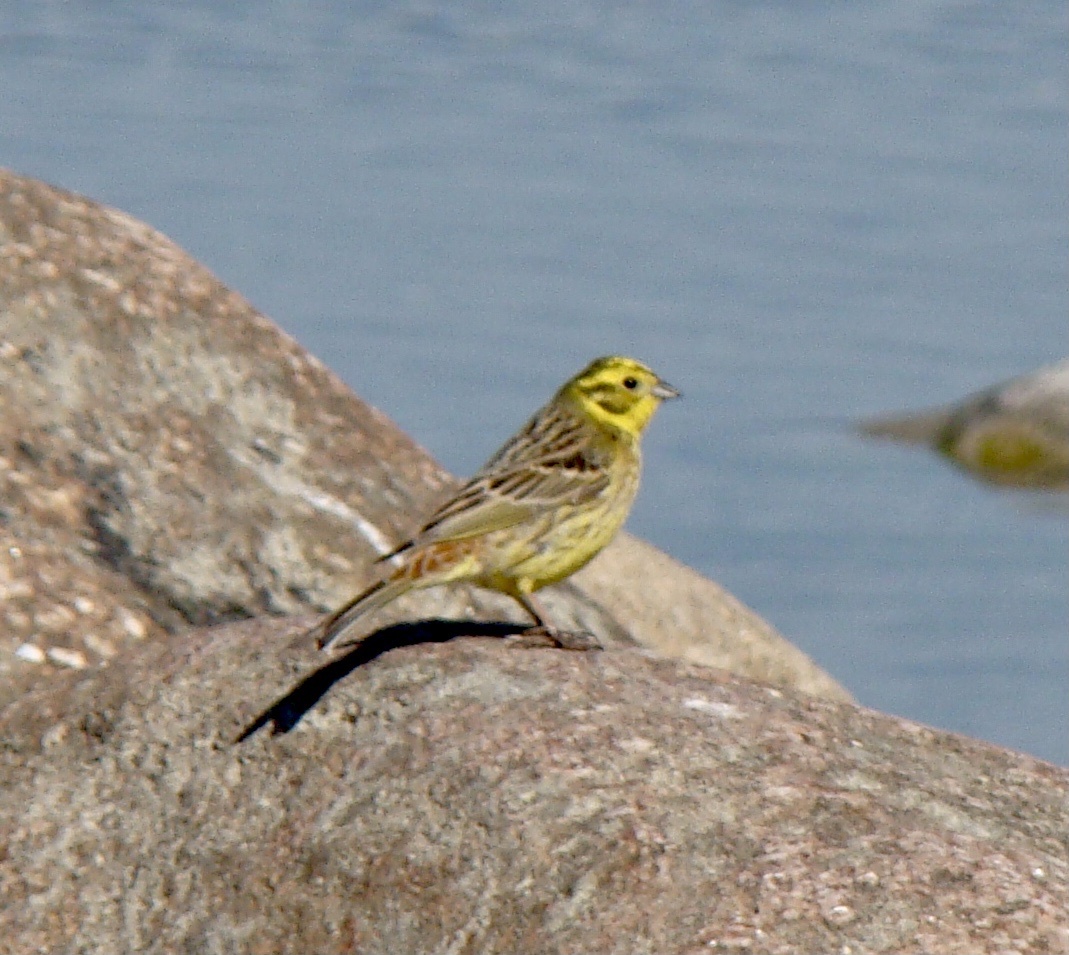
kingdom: Animalia
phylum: Chordata
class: Aves
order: Passeriformes
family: Emberizidae
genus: Emberiza
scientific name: Emberiza citrinella
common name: Yellowhammer
